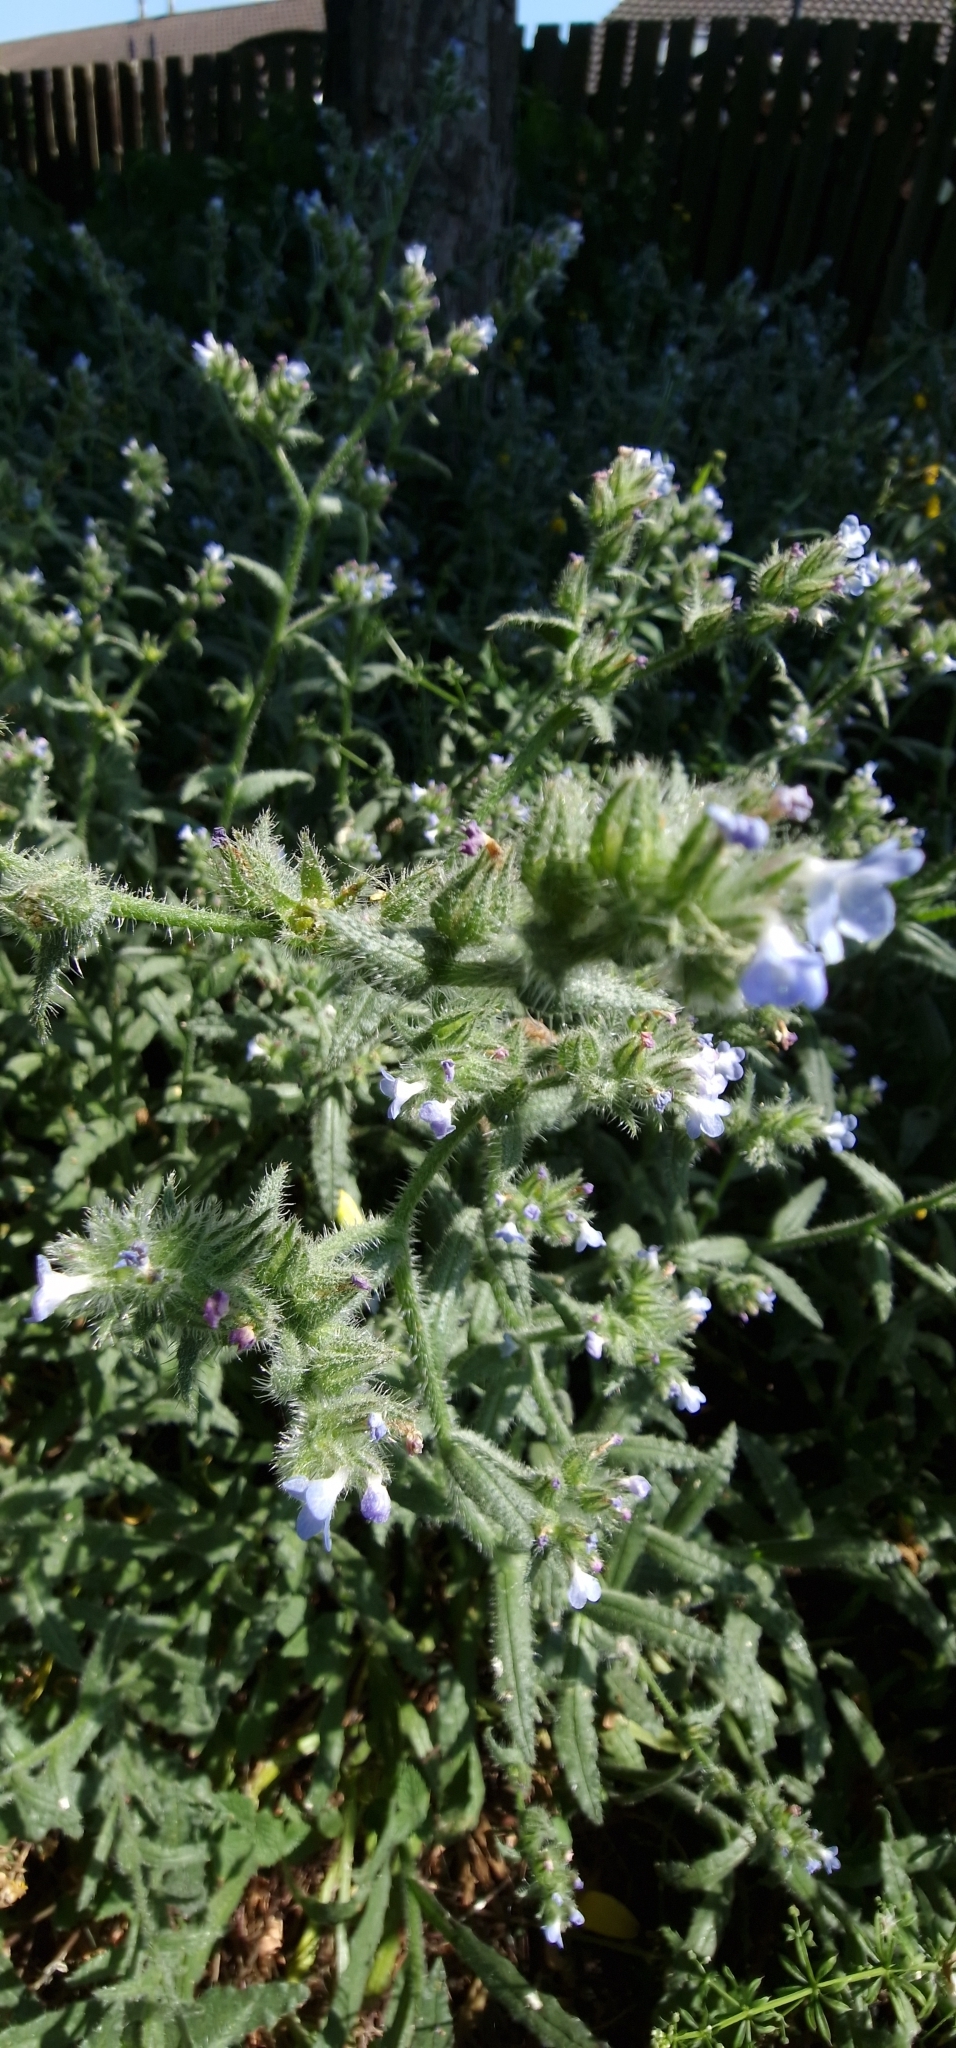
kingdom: Plantae
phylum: Tracheophyta
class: Magnoliopsida
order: Boraginales
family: Boraginaceae
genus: Lycopsis
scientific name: Lycopsis arvensis
